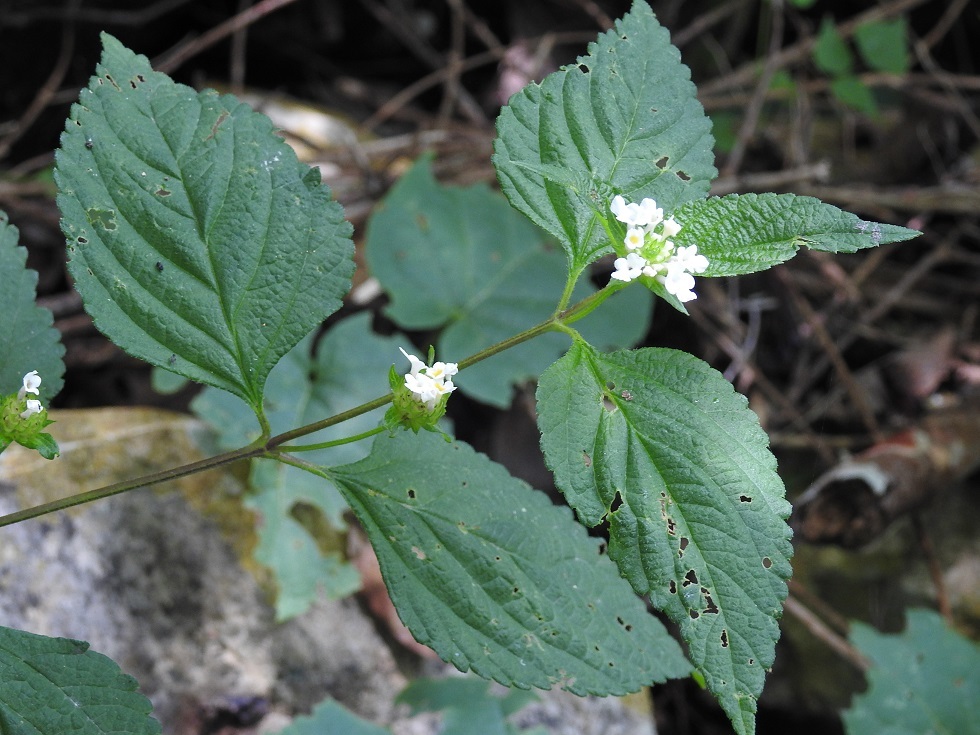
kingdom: Plantae
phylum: Tracheophyta
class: Magnoliopsida
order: Lamiales
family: Verbenaceae
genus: Lantana
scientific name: Lantana velutina
